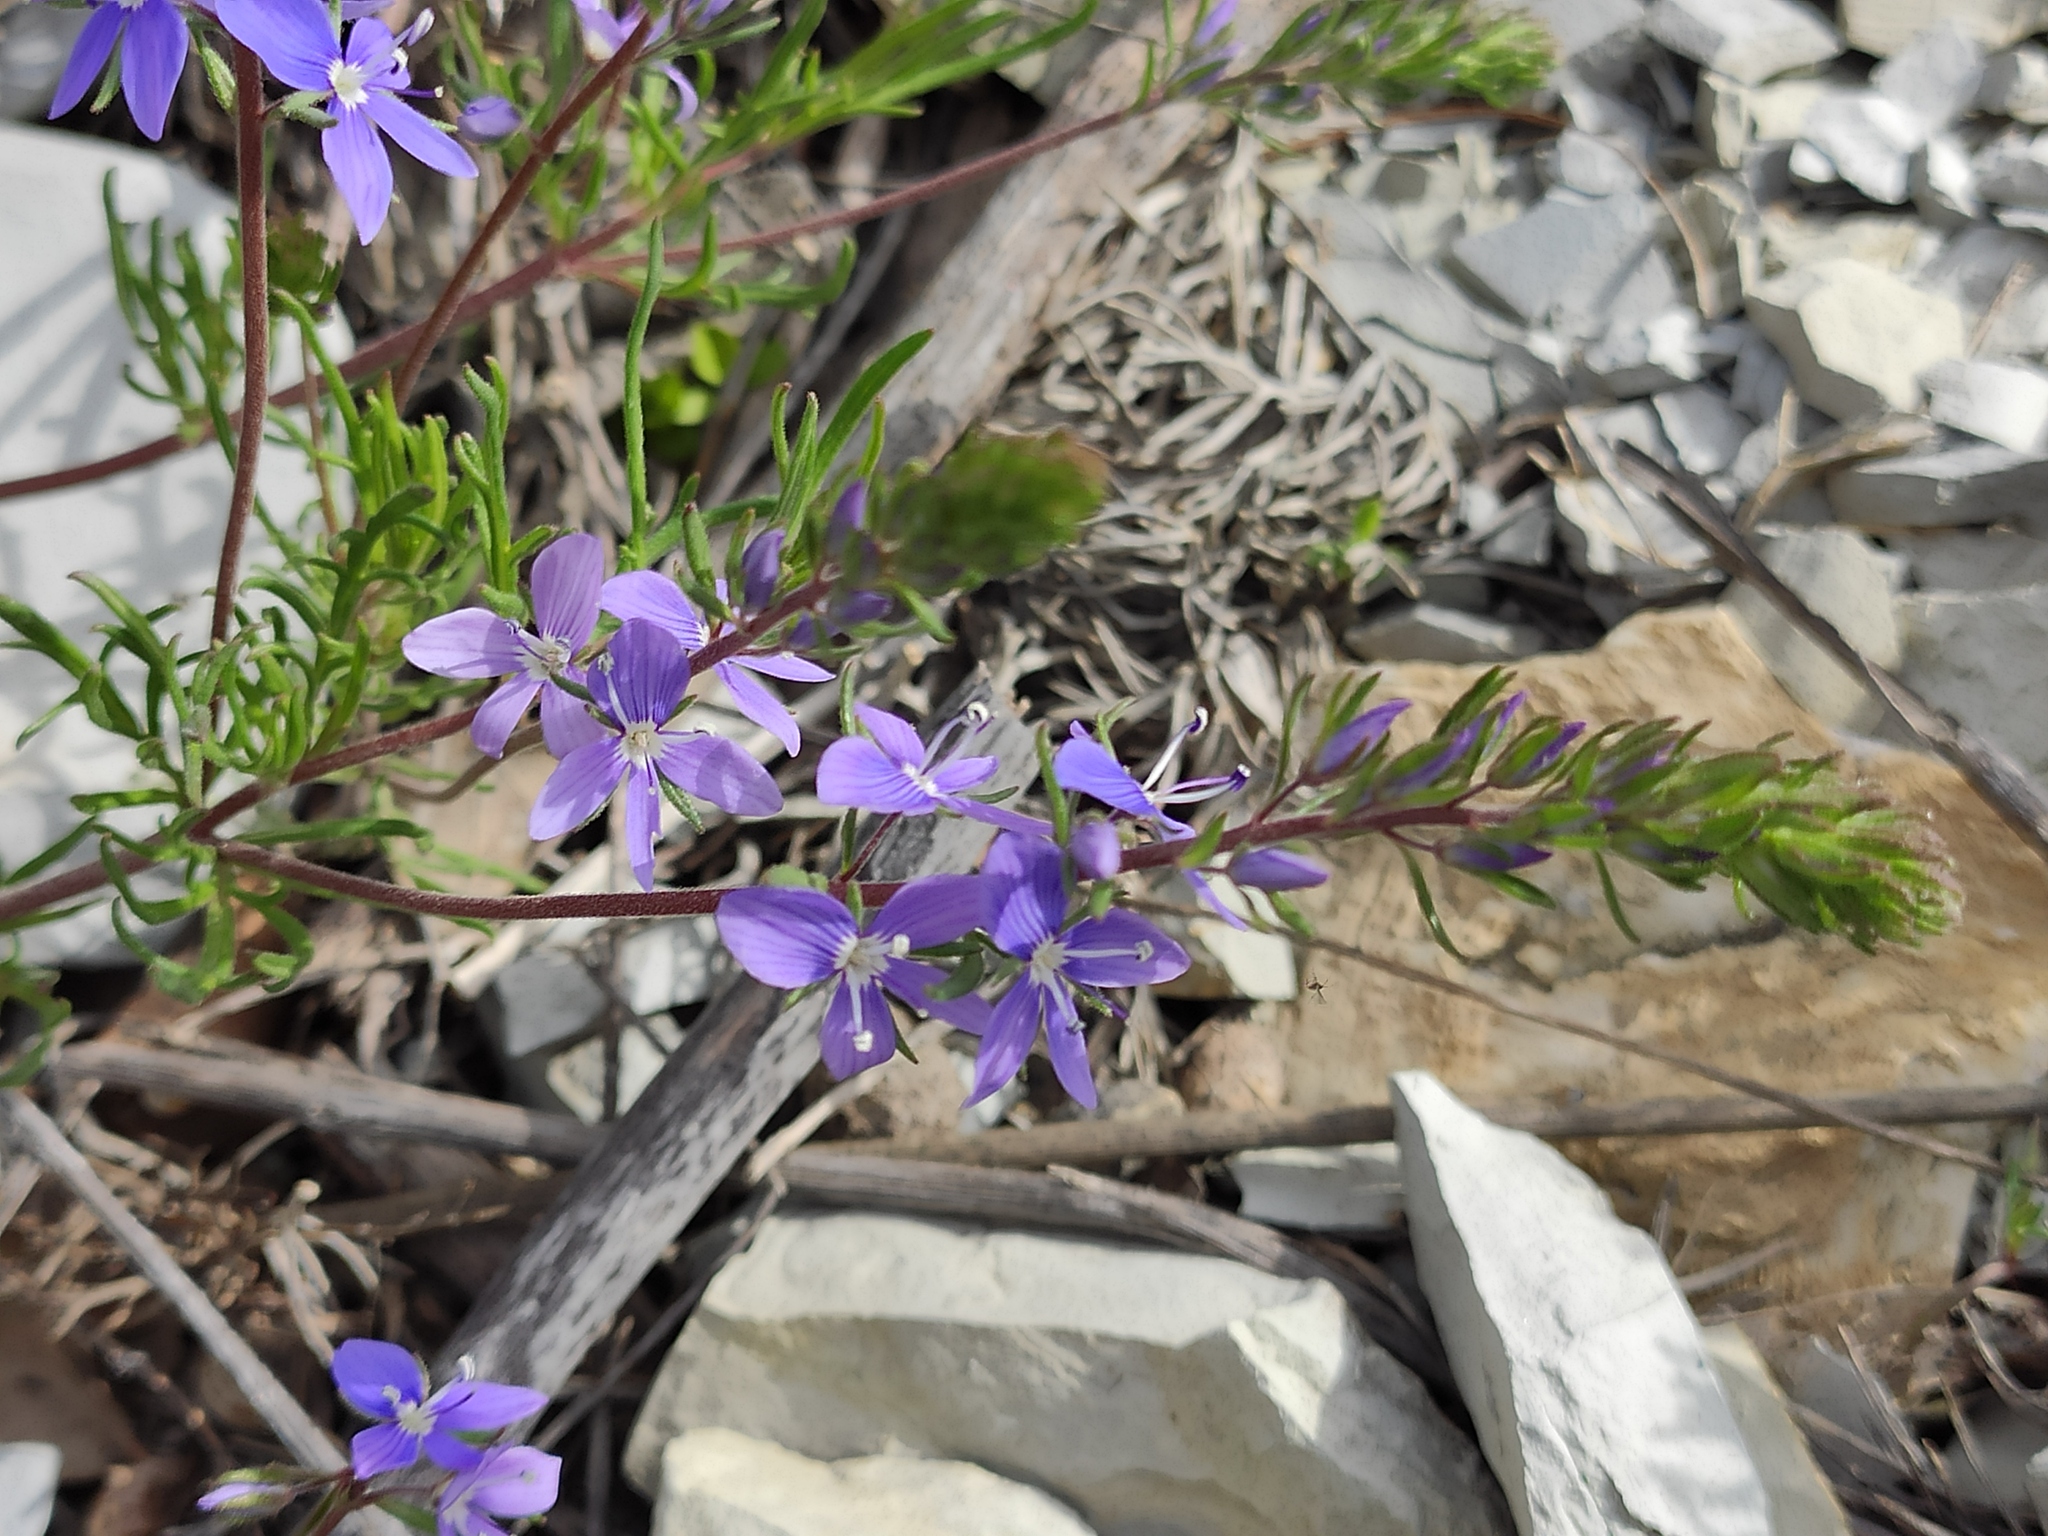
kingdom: Plantae
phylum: Tracheophyta
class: Magnoliopsida
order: Lamiales
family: Plantaginaceae
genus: Veronica
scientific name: Veronica capsellicarpa
